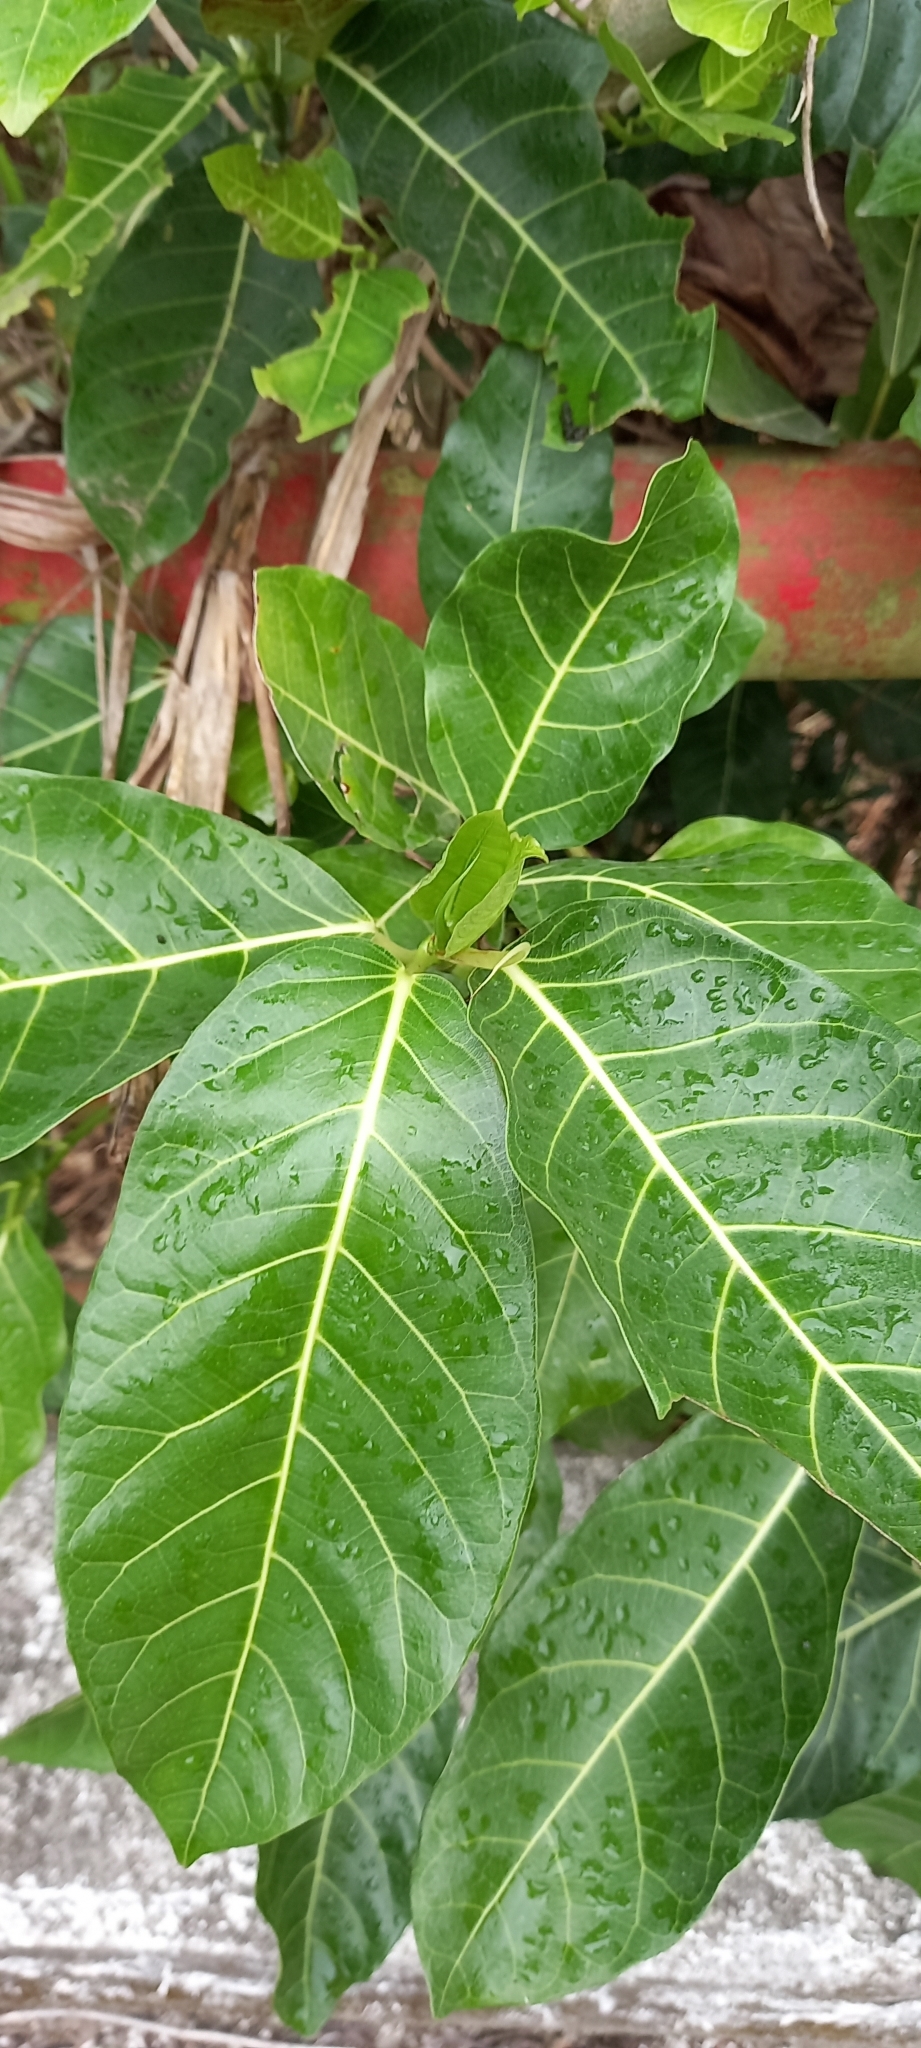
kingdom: Plantae
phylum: Tracheophyta
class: Magnoliopsida
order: Rosales
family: Moraceae
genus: Ficus
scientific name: Ficus septica
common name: Septic fig
